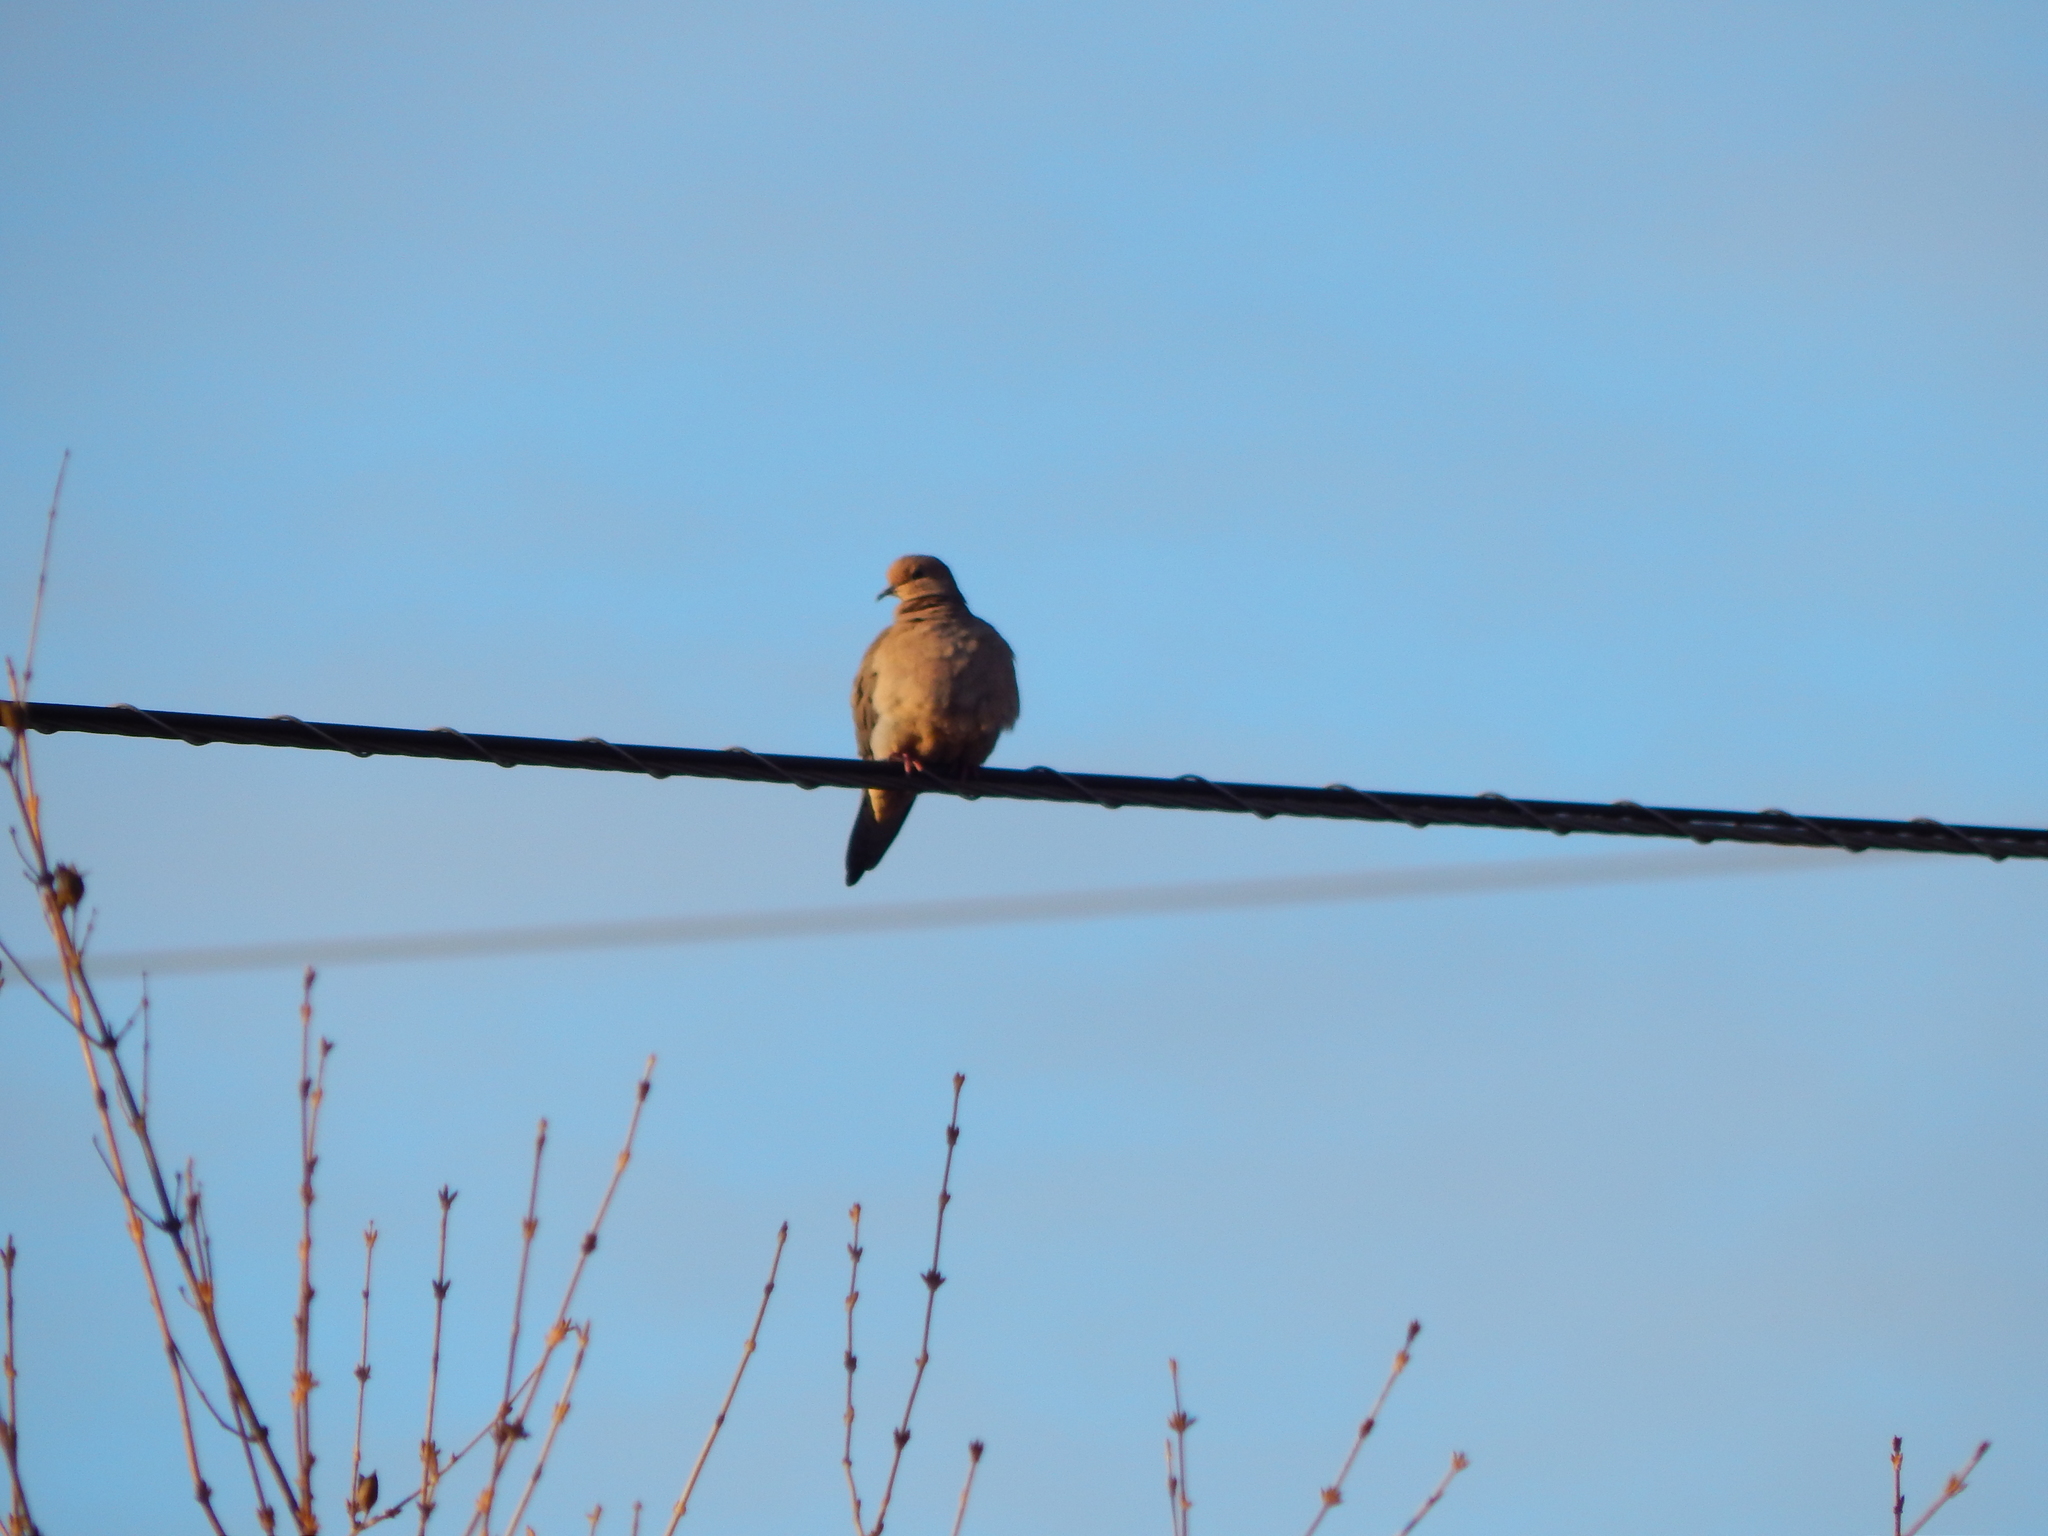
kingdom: Animalia
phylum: Chordata
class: Aves
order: Columbiformes
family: Columbidae
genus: Zenaida
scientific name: Zenaida macroura
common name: Mourning dove
